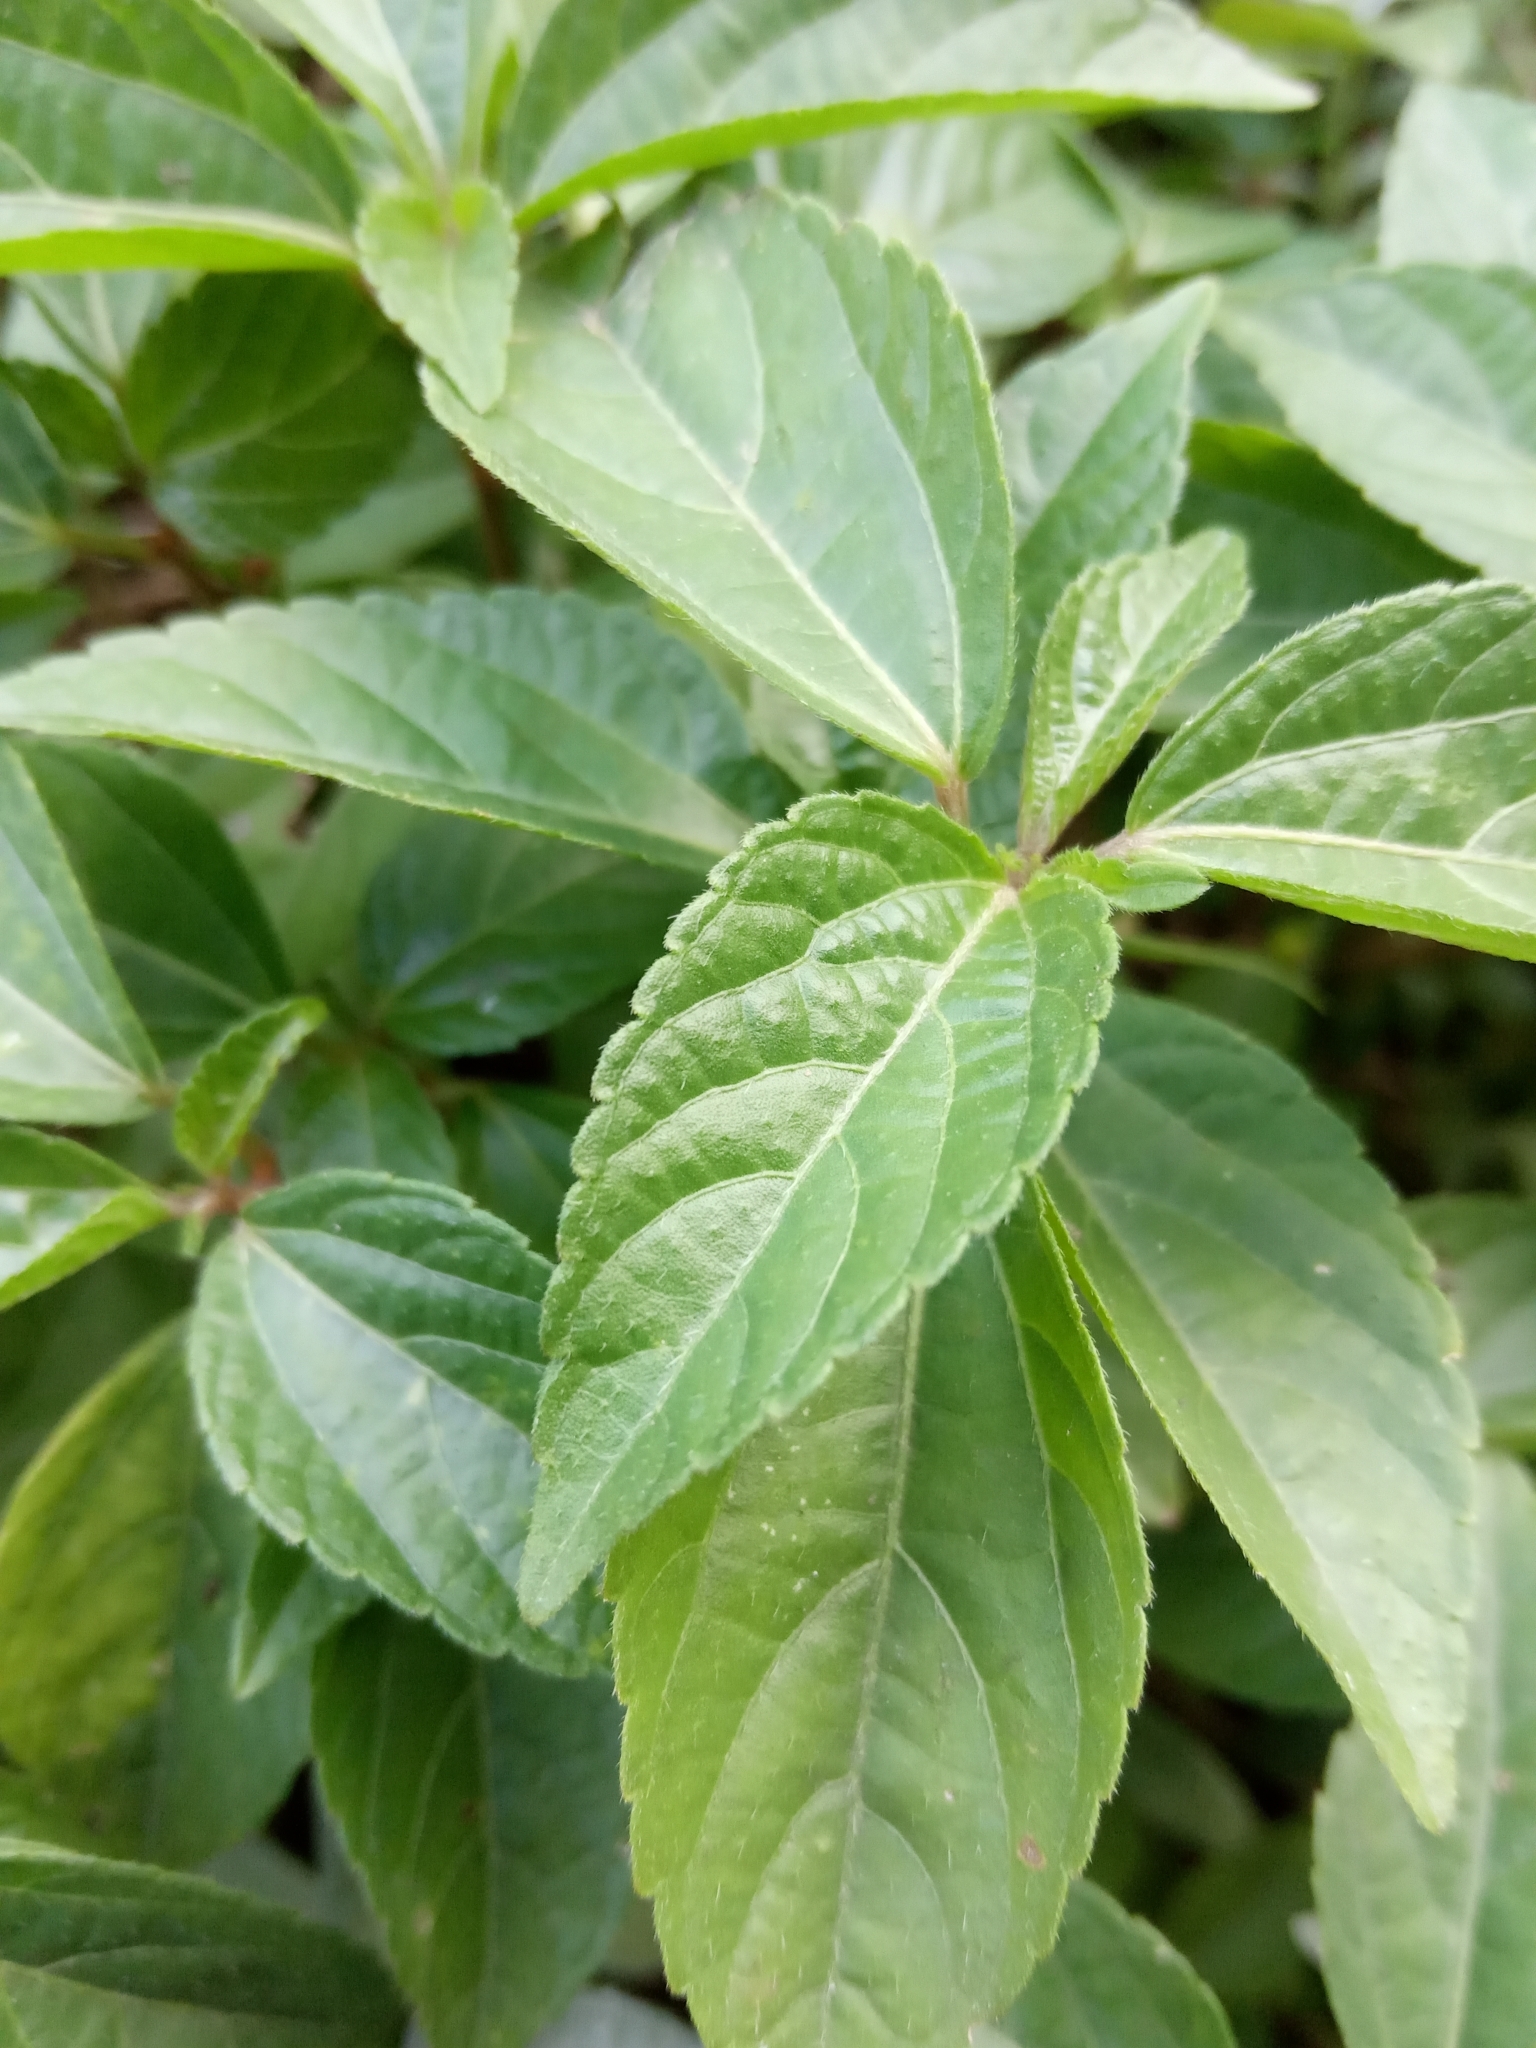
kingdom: Plantae
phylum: Tracheophyta
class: Magnoliopsida
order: Malpighiales
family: Euphorbiaceae
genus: Acalypha
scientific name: Acalypha australis
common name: Asian copperleaf
